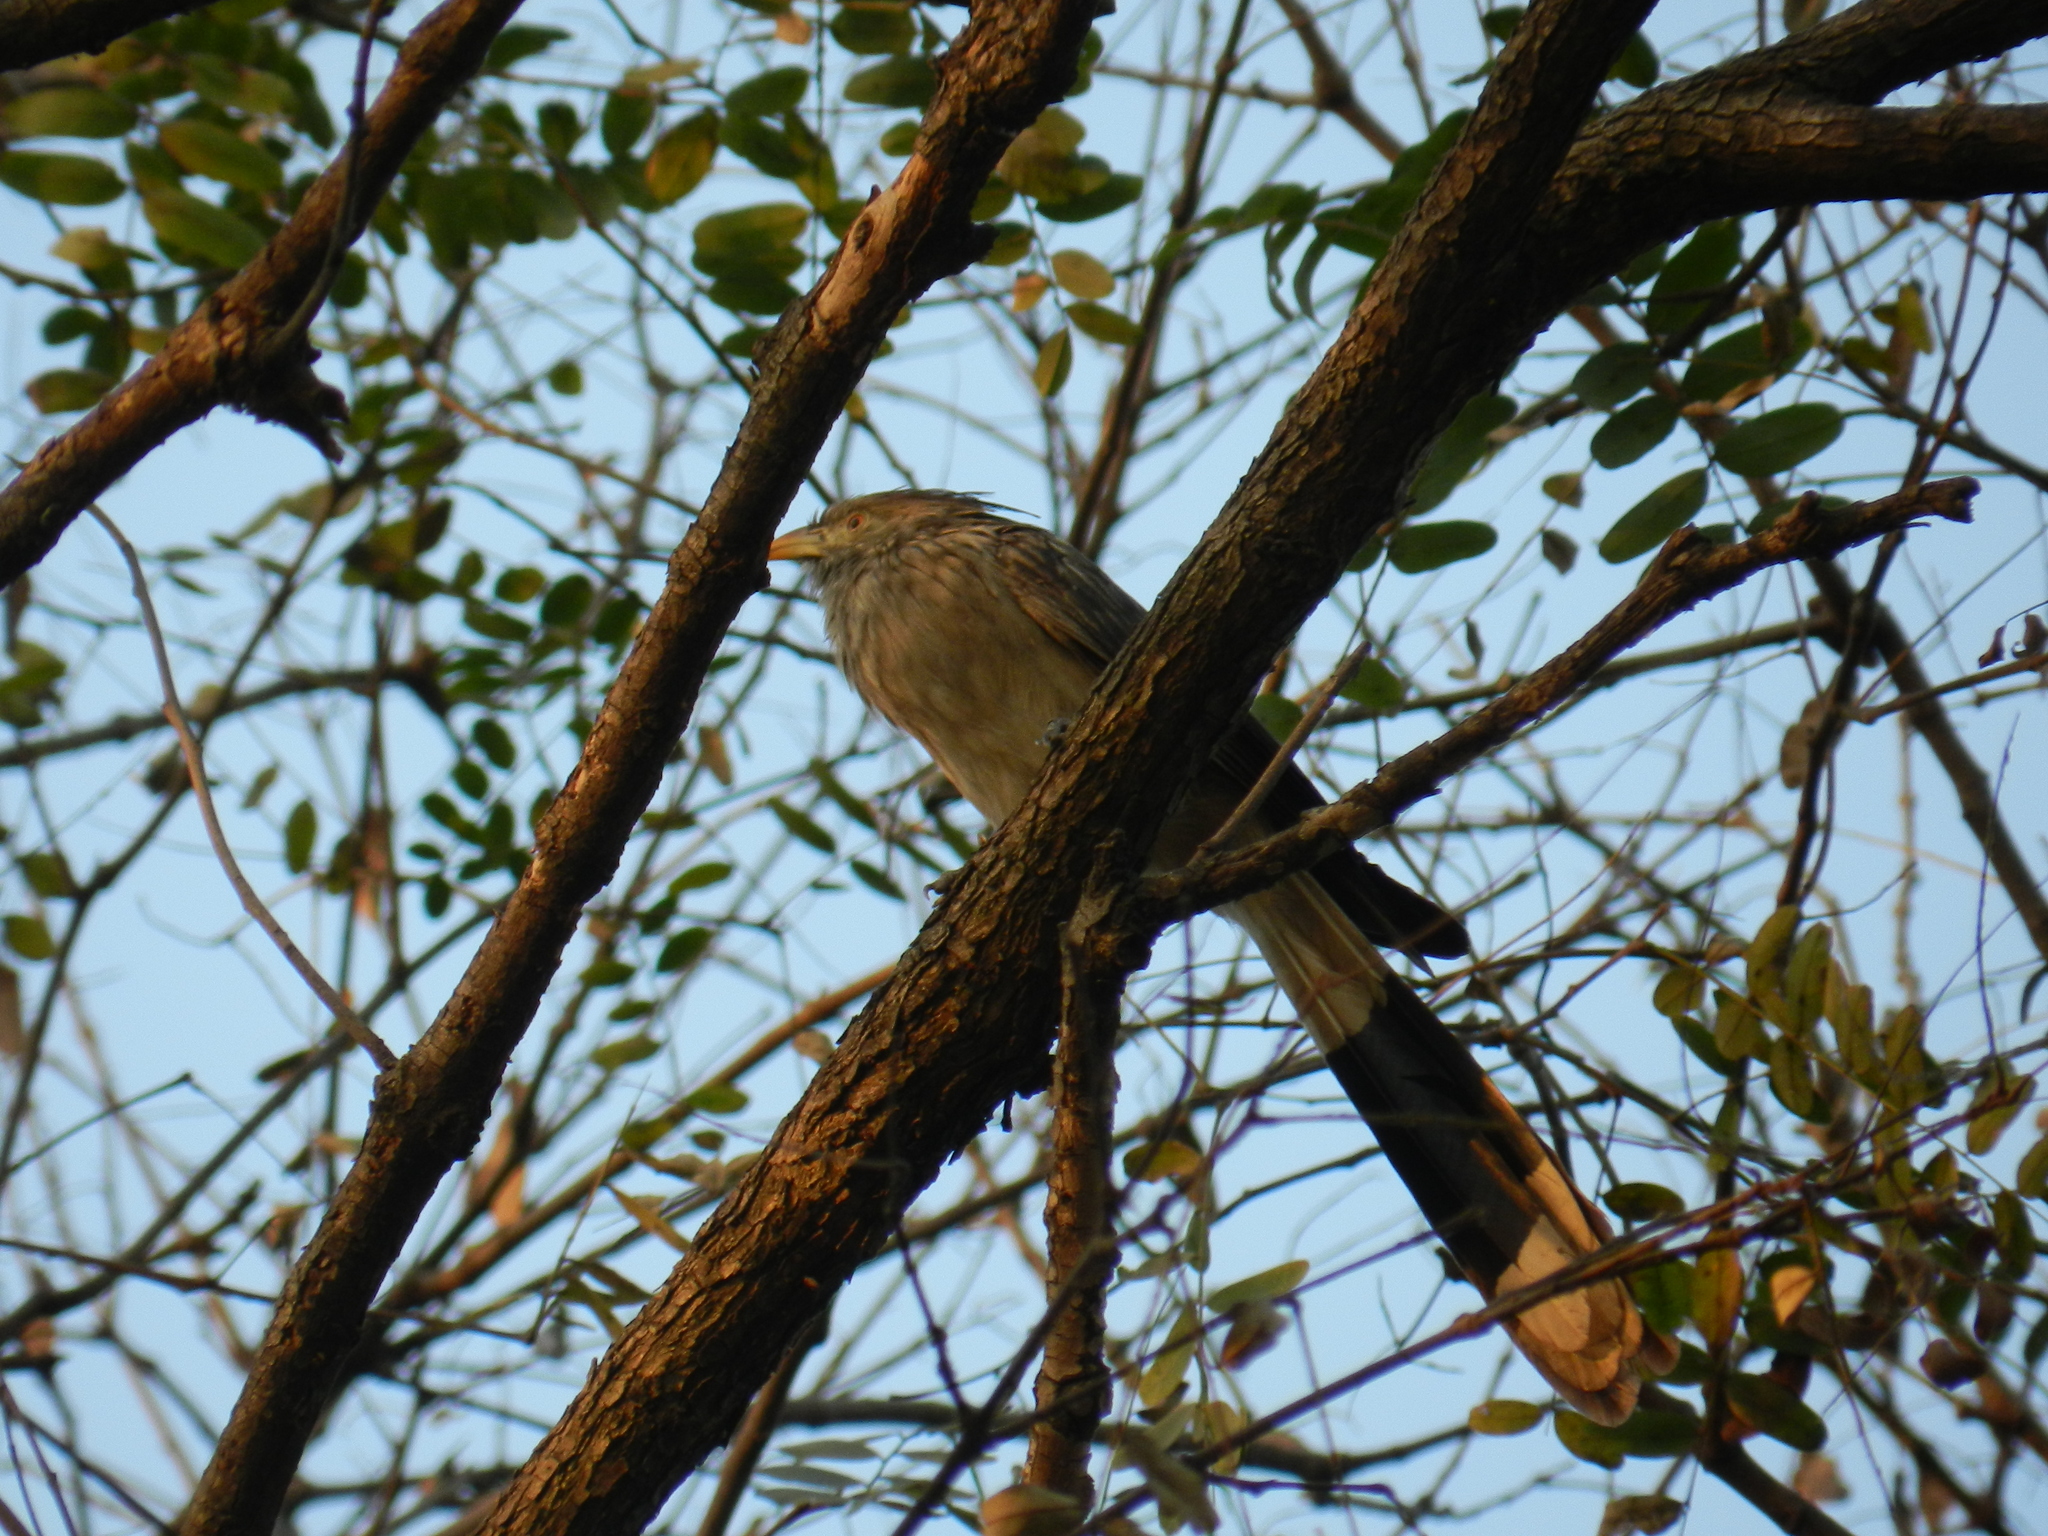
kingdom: Animalia
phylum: Chordata
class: Aves
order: Cuculiformes
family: Cuculidae
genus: Guira
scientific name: Guira guira
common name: Guira cuckoo
